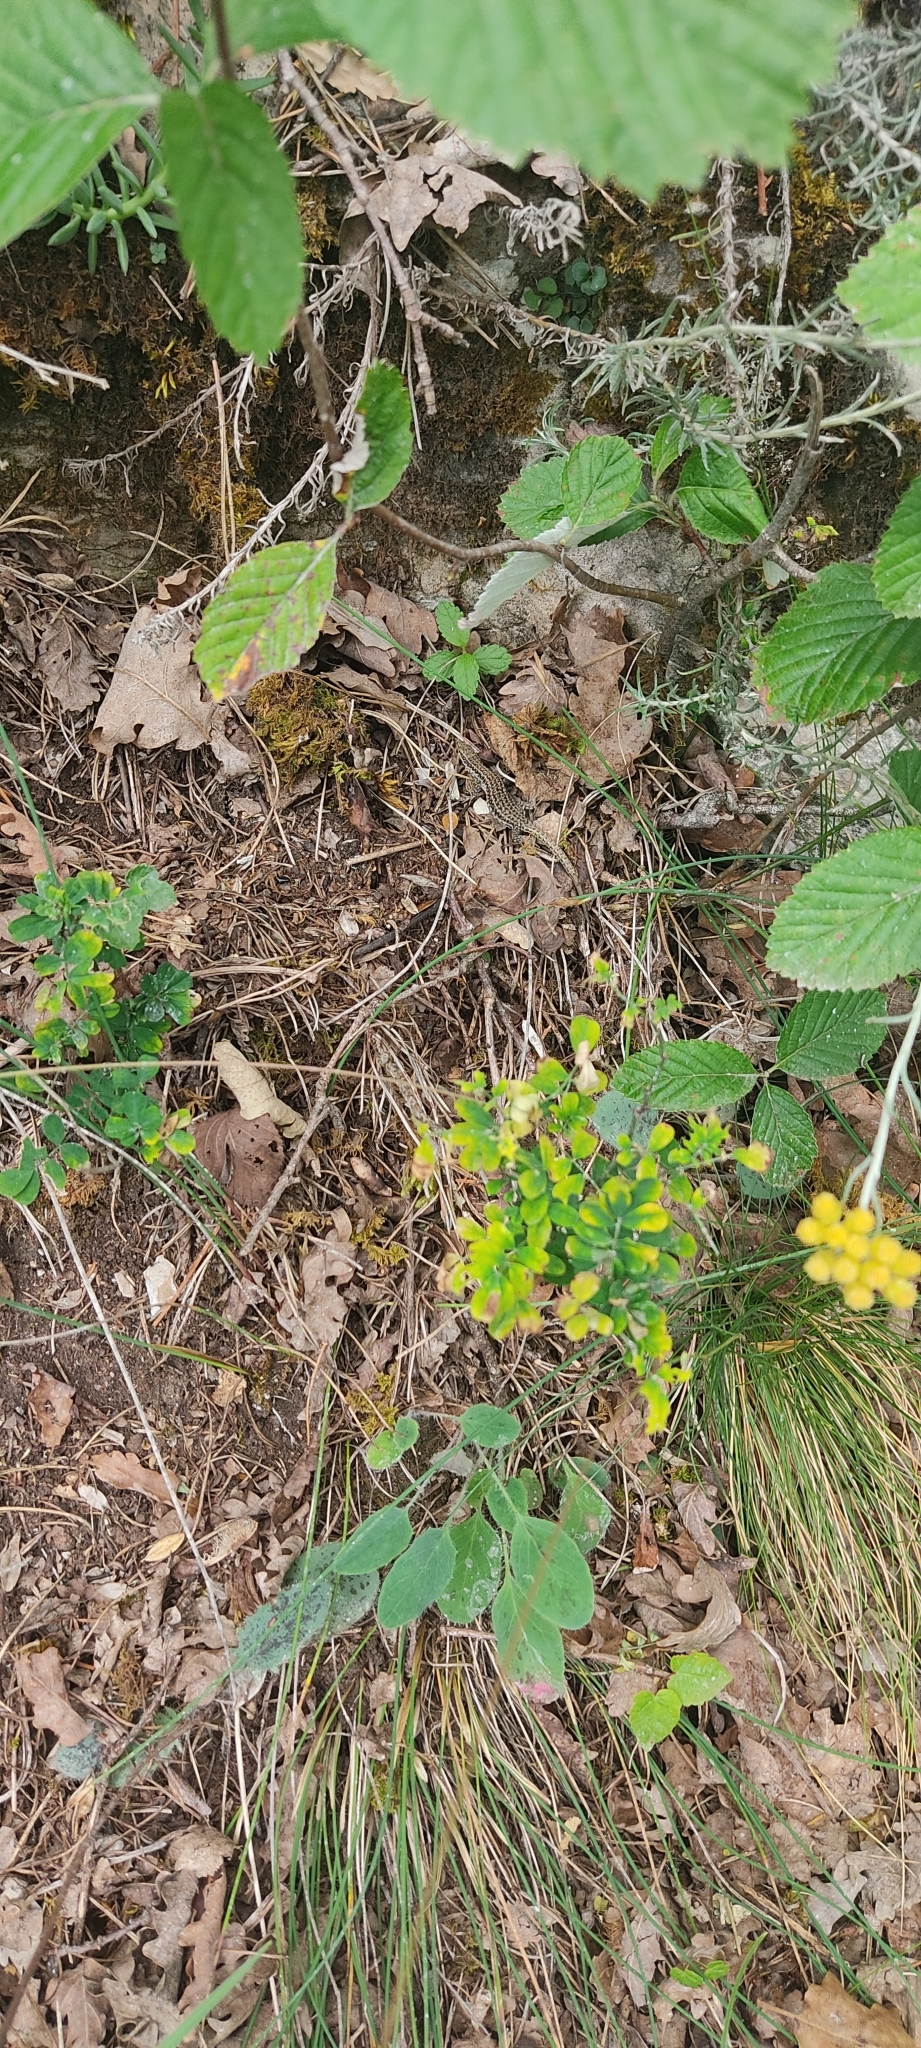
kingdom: Animalia
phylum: Chordata
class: Squamata
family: Lacertidae
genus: Podarcis
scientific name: Podarcis liolepis
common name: Catalonian wall lizard
